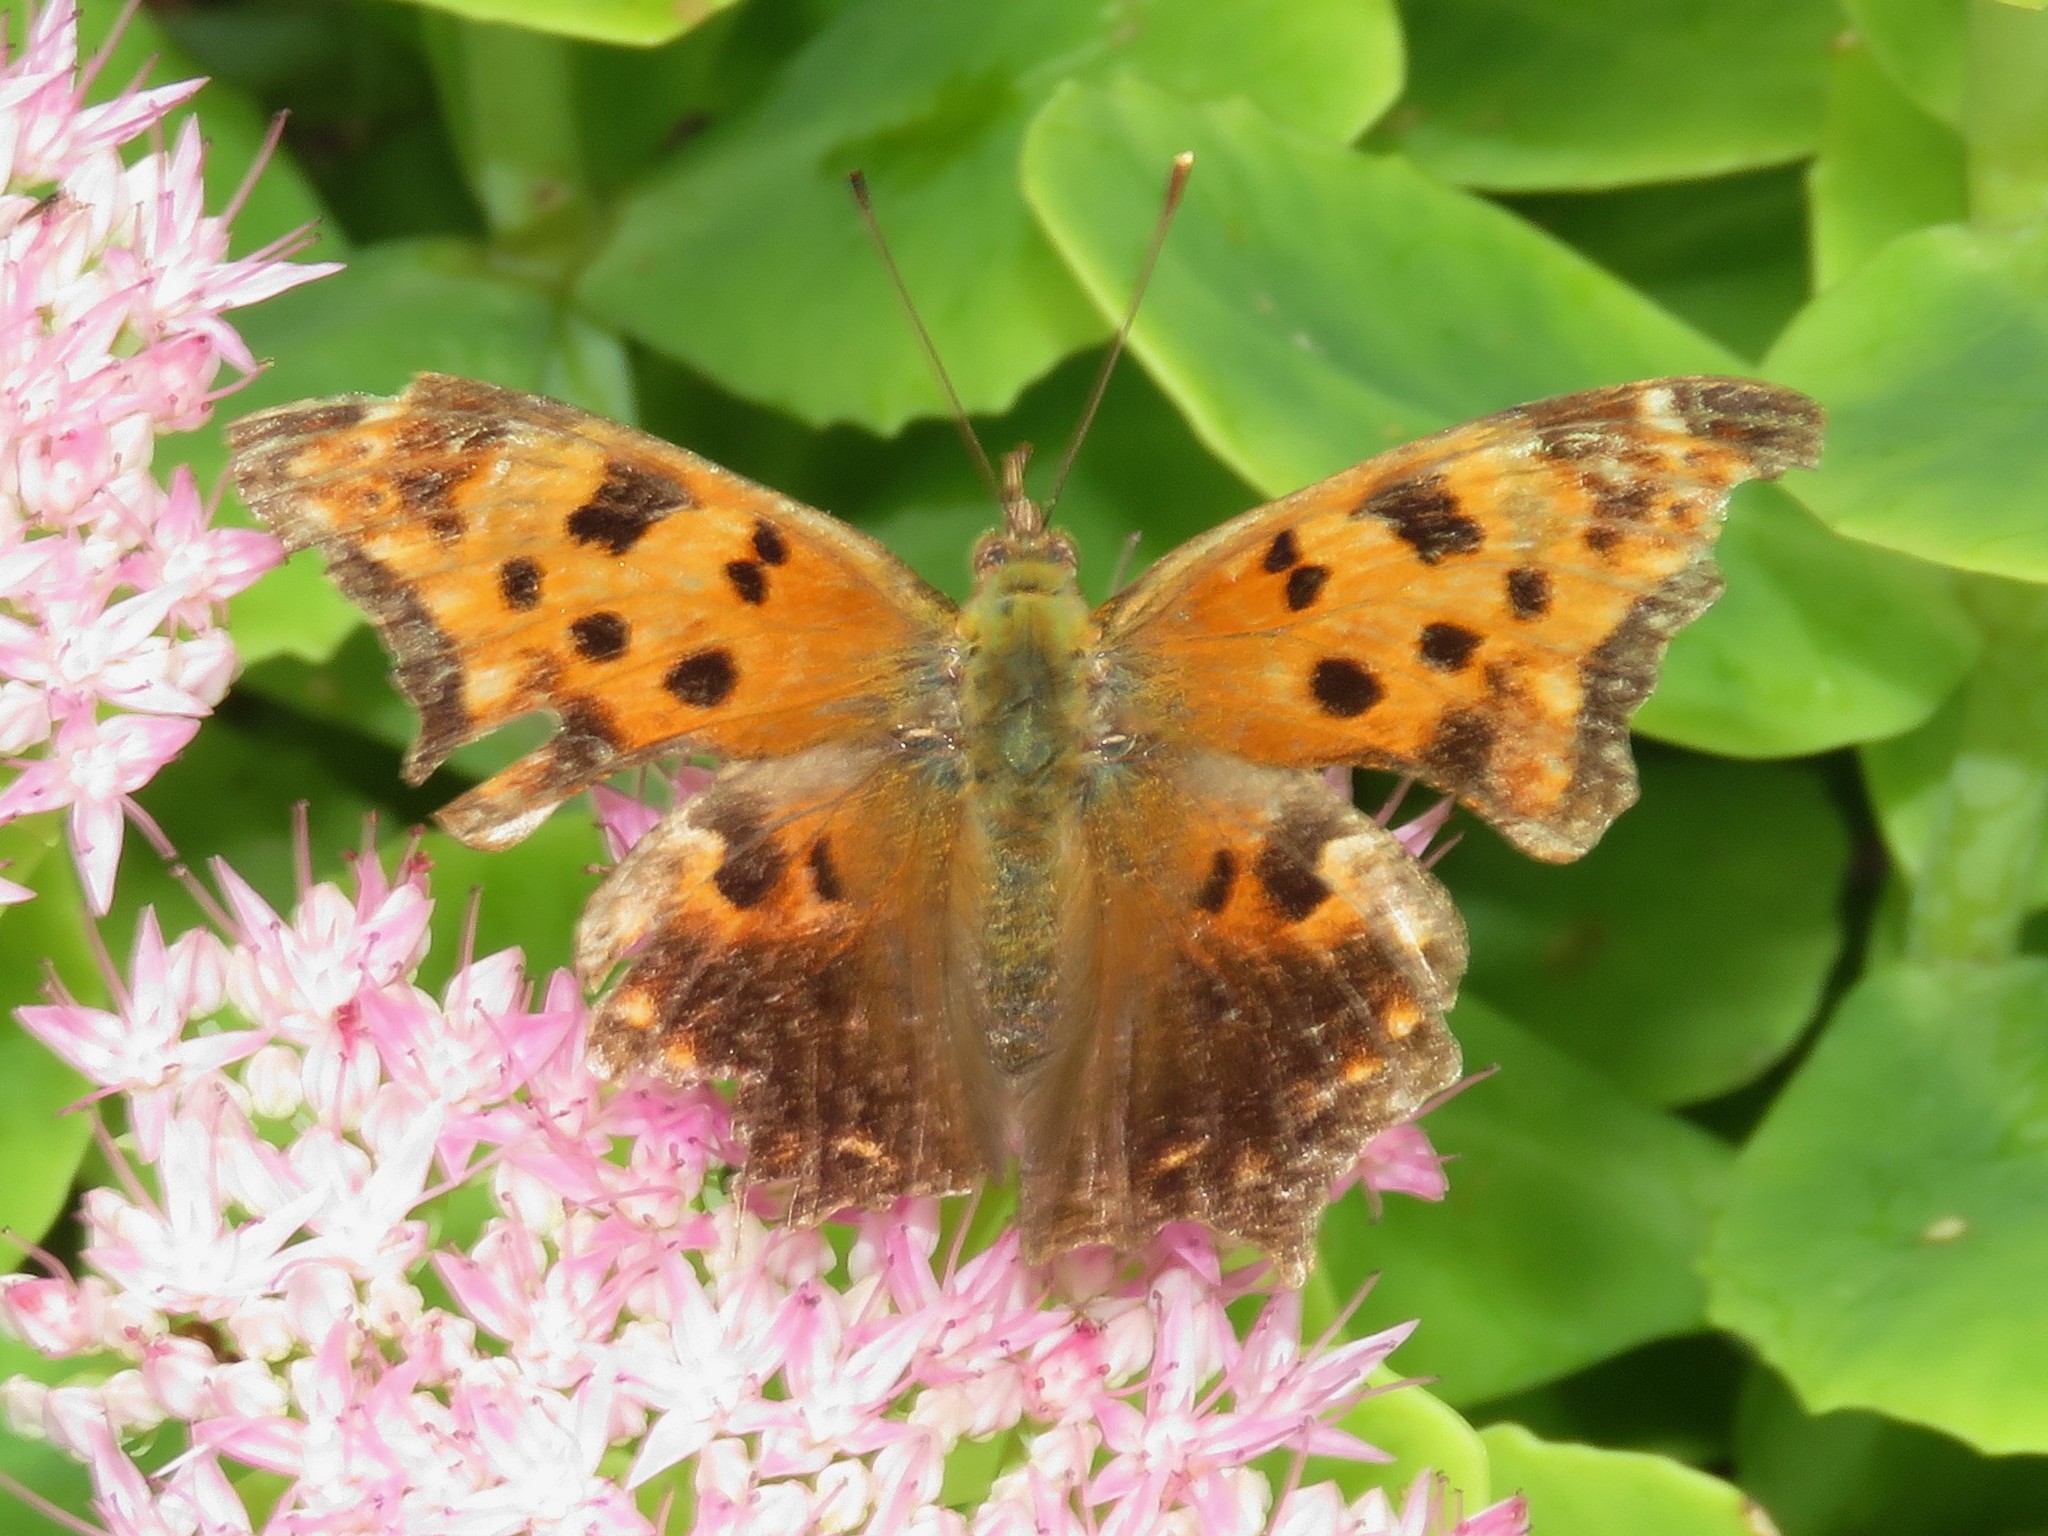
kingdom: Animalia
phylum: Arthropoda
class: Insecta
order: Lepidoptera
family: Nymphalidae
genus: Polygonia
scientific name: Polygonia comma
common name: Eastern comma
